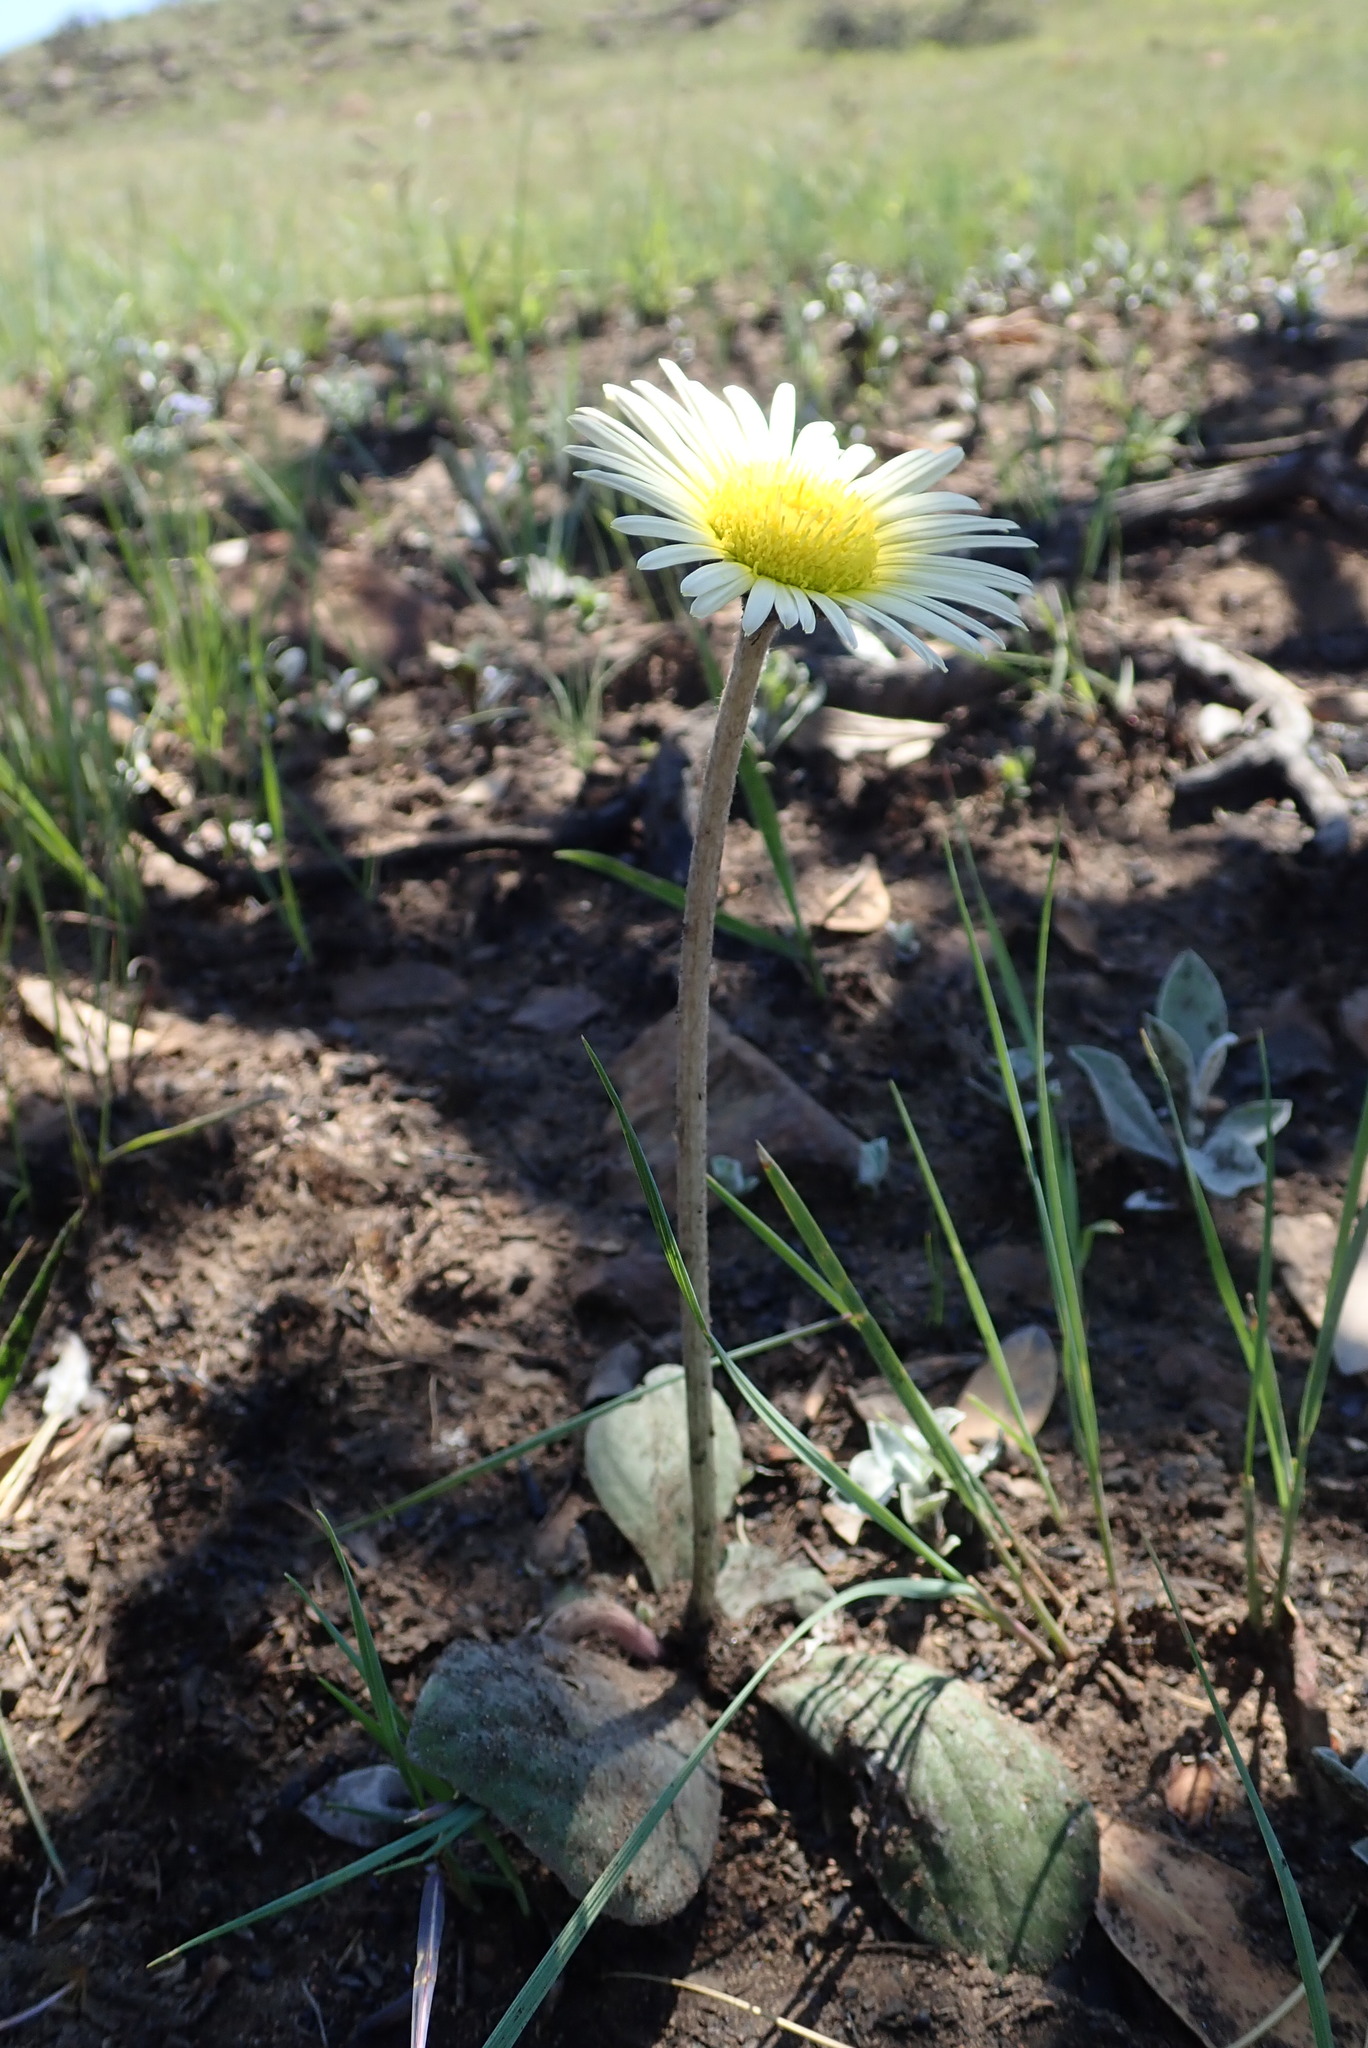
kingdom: Plantae
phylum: Tracheophyta
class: Magnoliopsida
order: Asterales
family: Asteraceae
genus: Haplocarpha
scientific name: Haplocarpha scaposa
